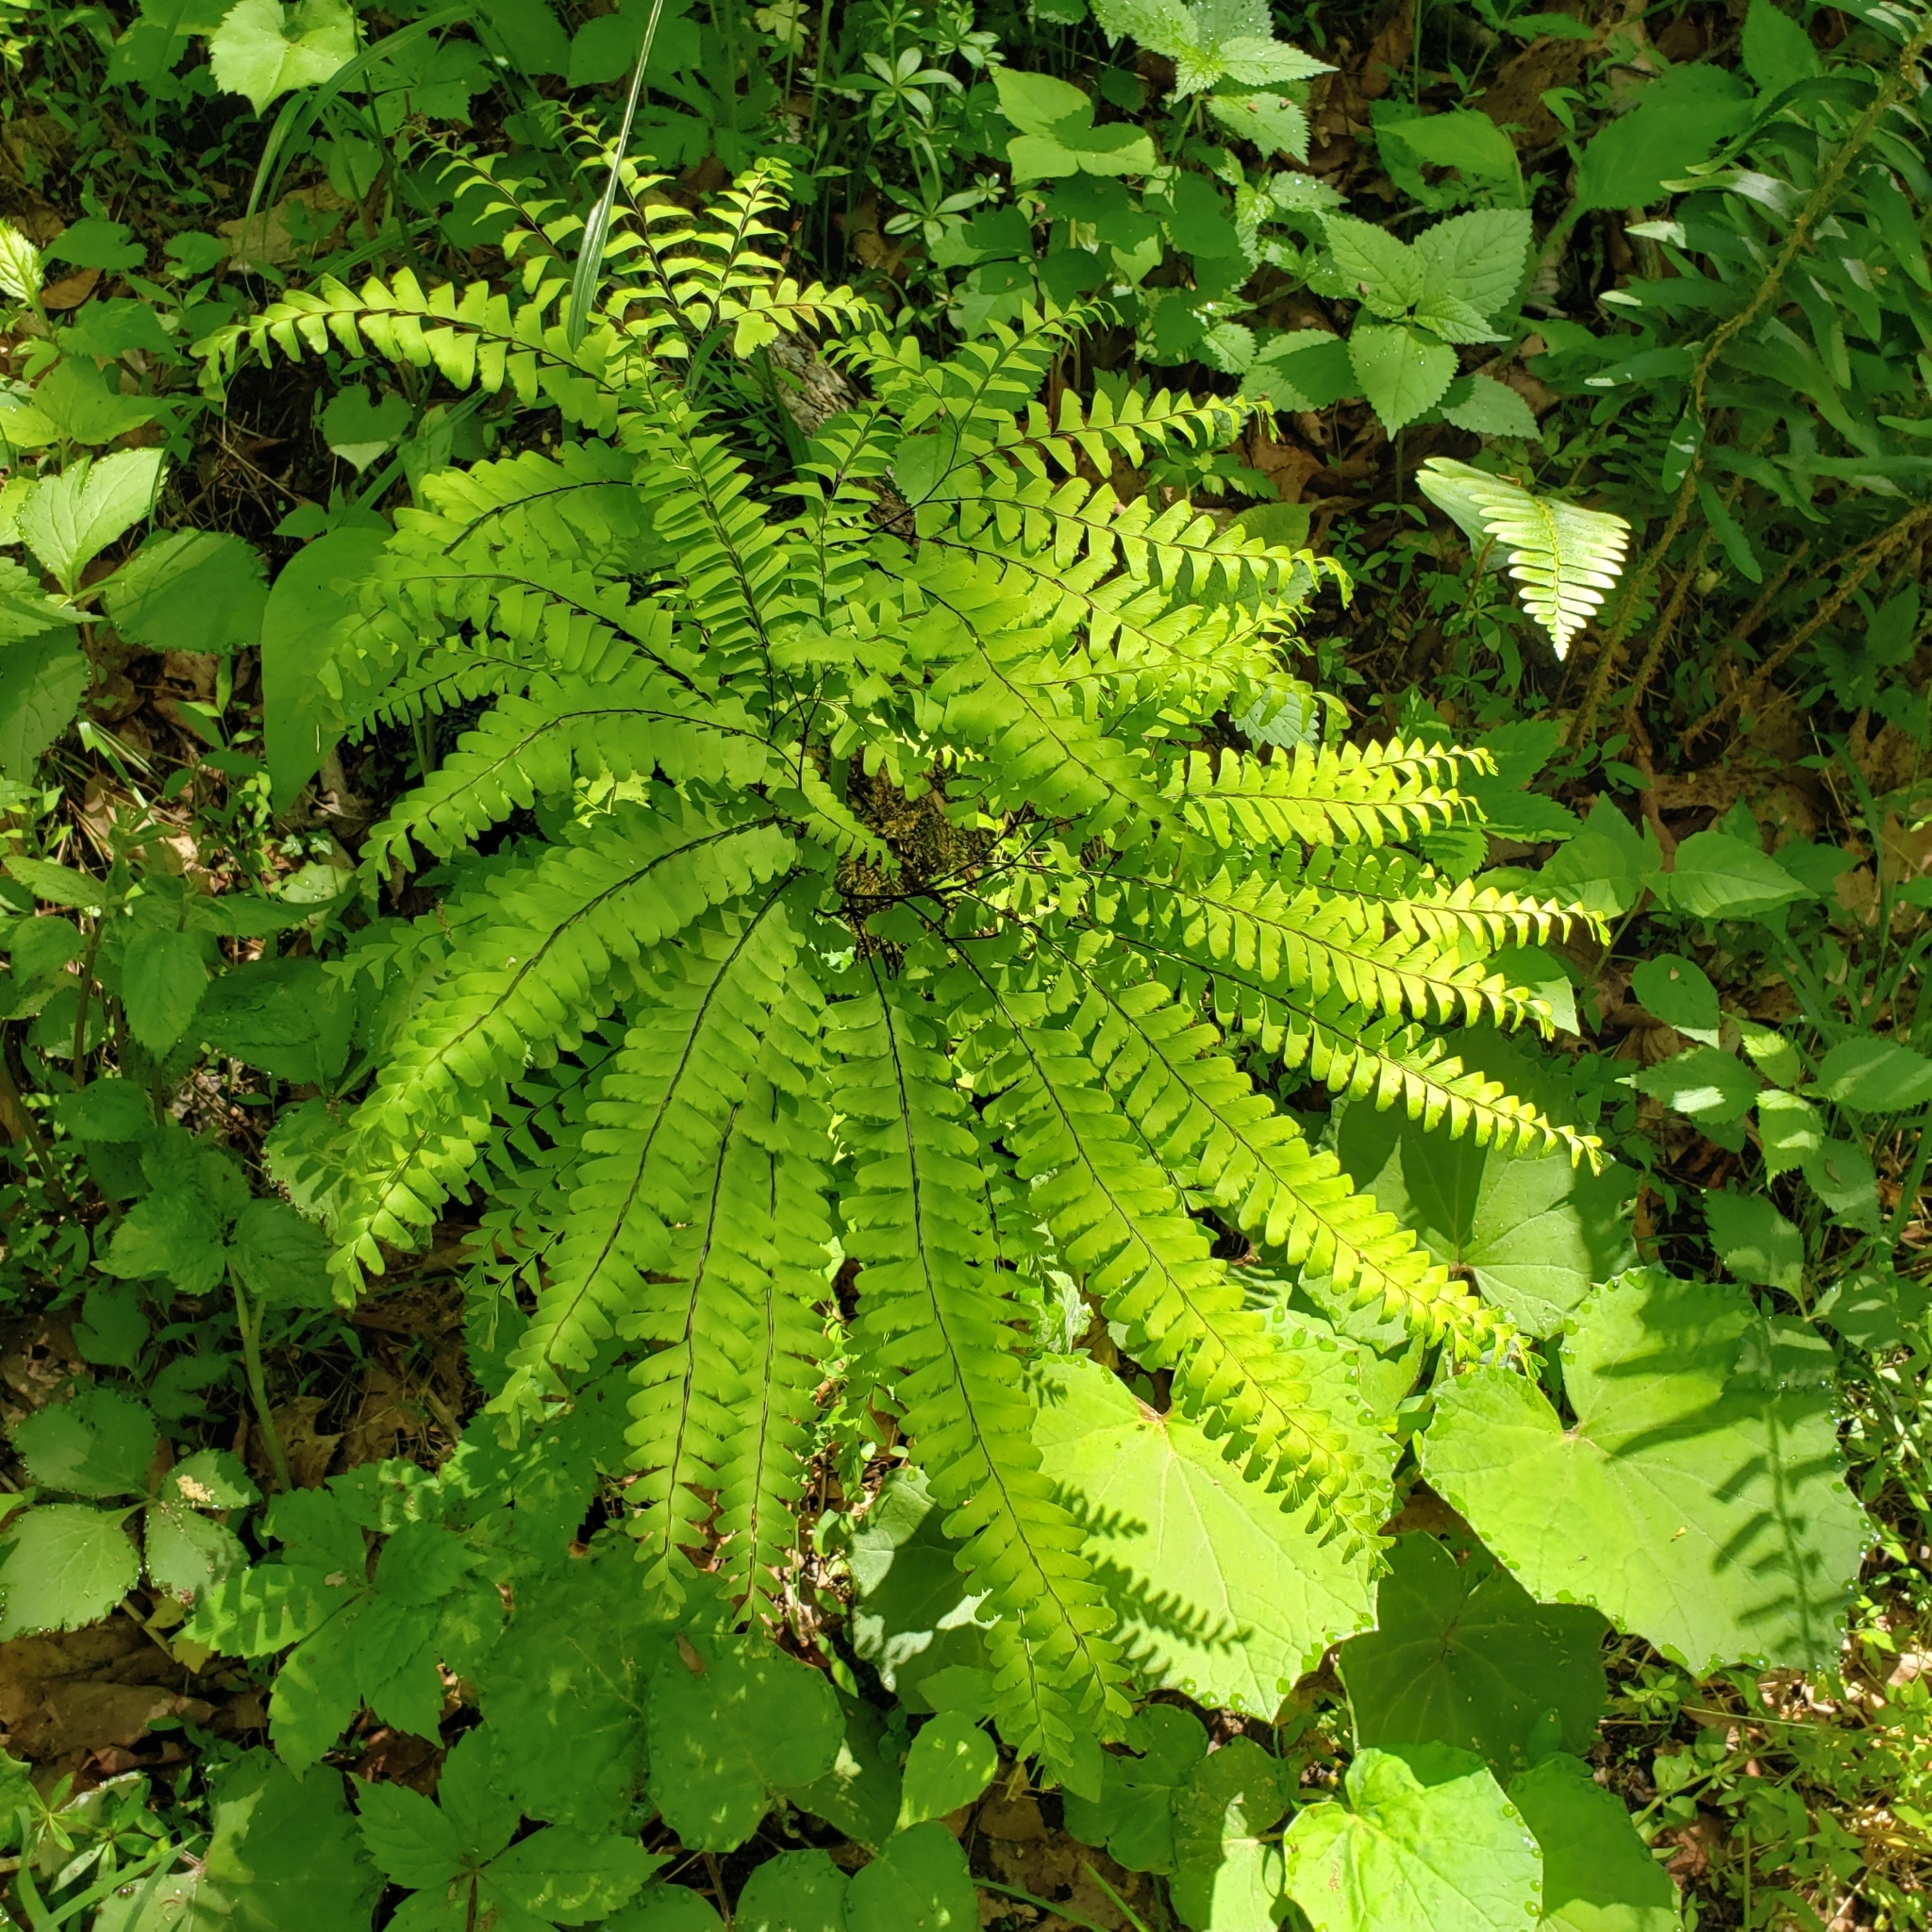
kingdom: Plantae
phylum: Tracheophyta
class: Polypodiopsida
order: Polypodiales
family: Pteridaceae
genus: Adiantum
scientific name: Adiantum pedatum
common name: Five-finger fern
